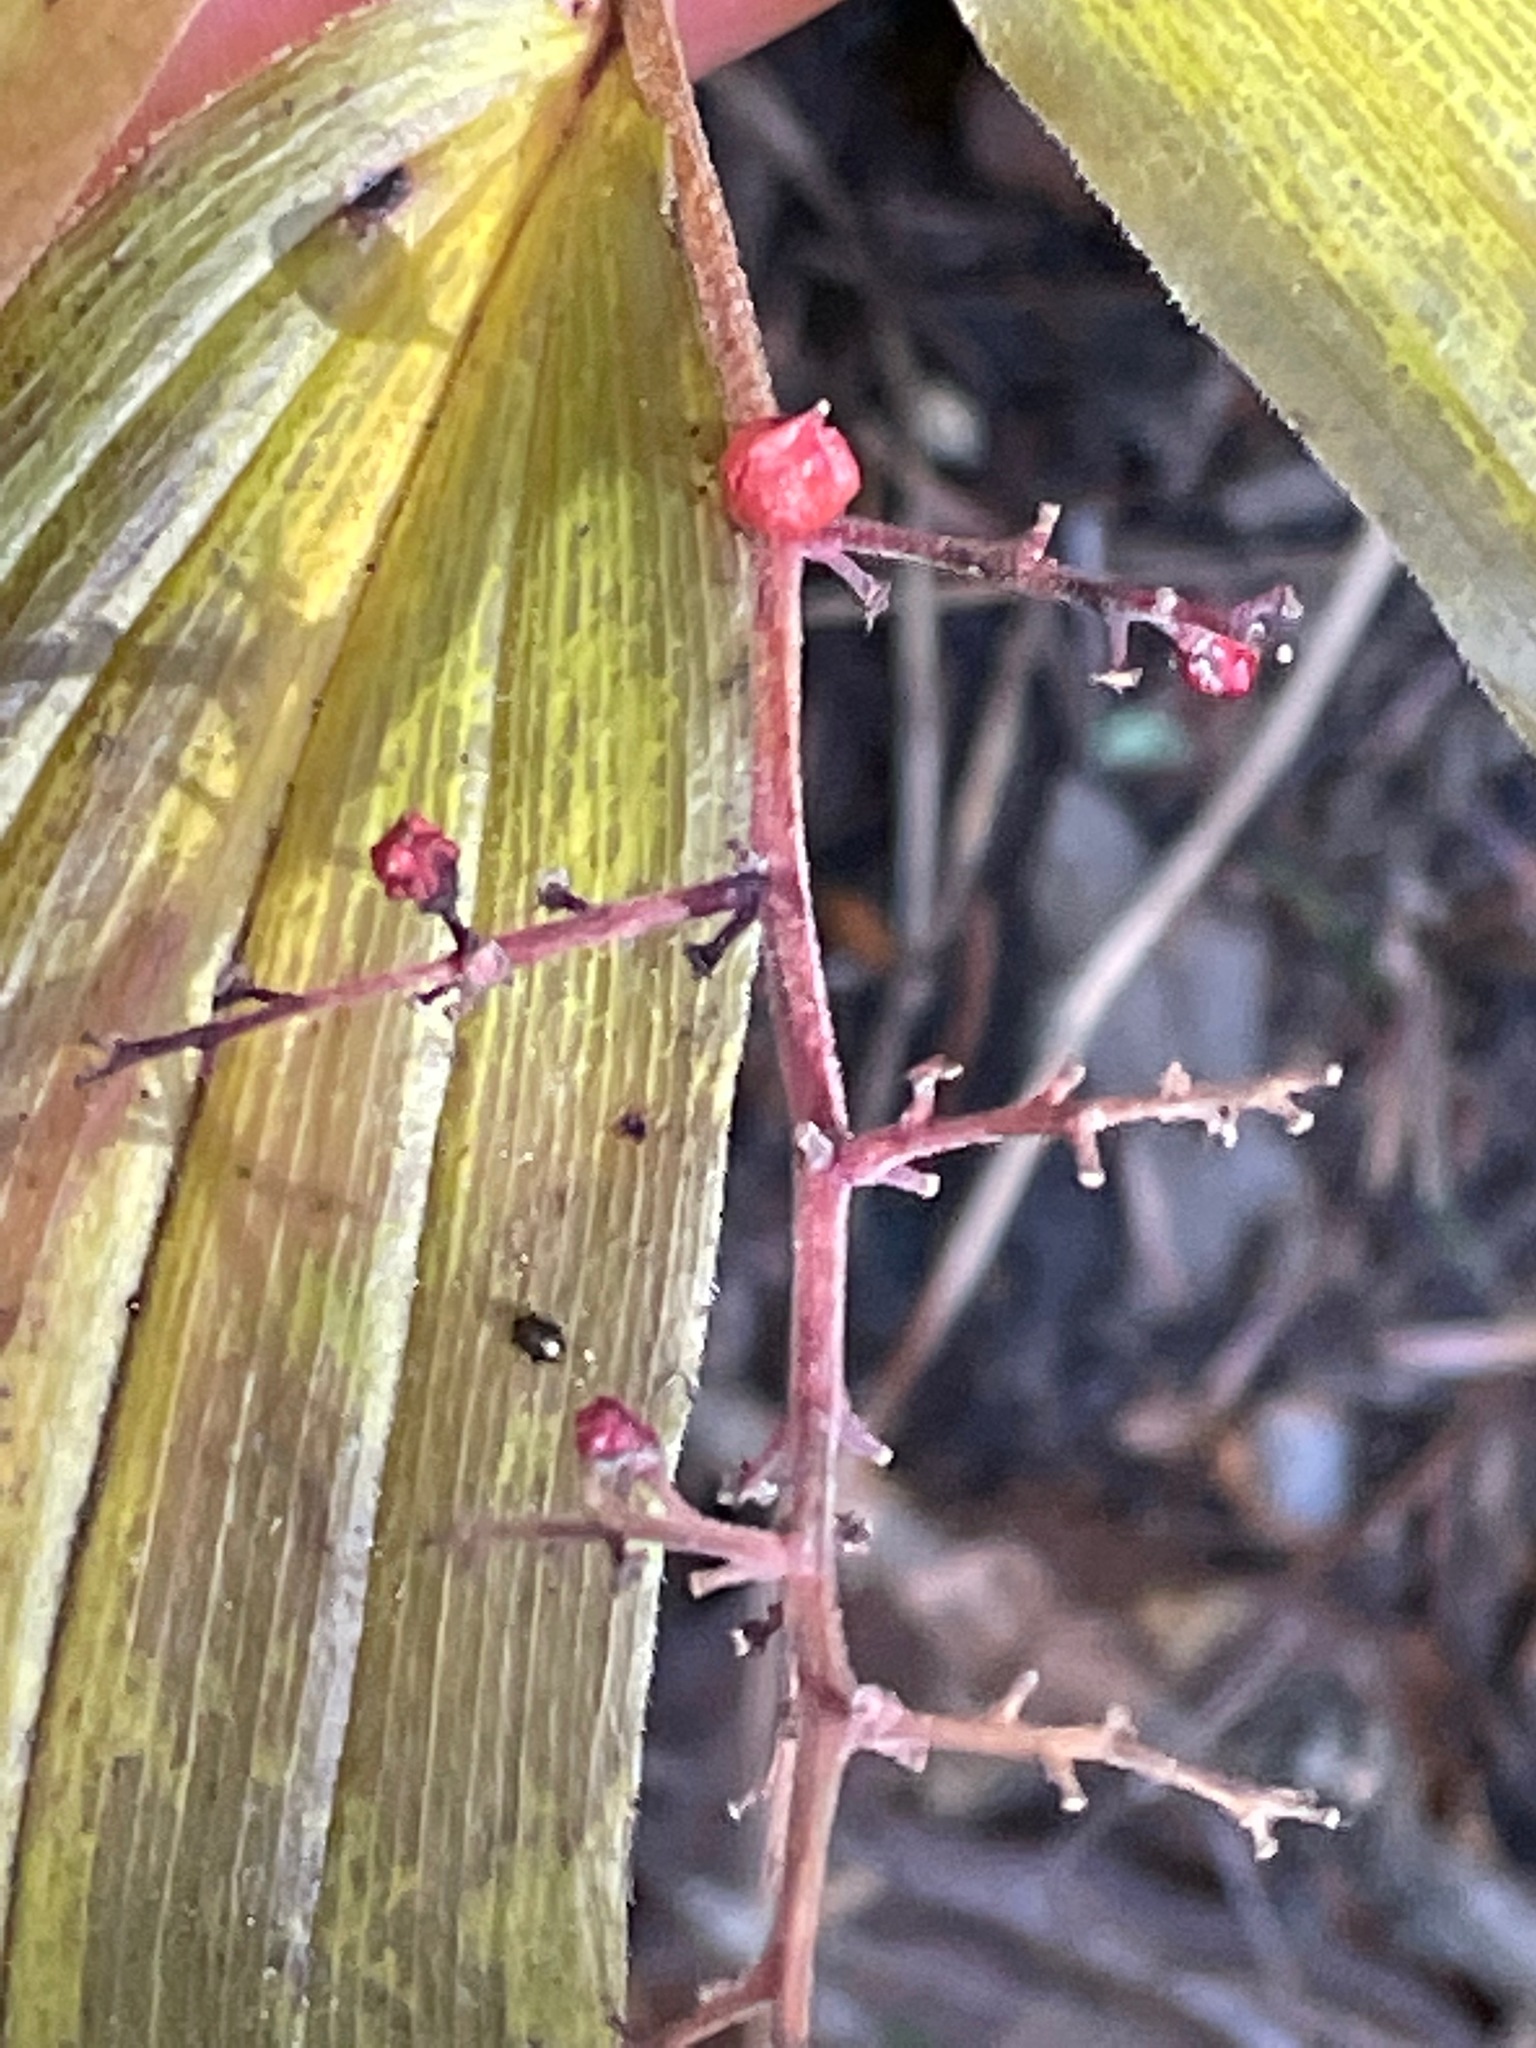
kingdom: Plantae
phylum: Tracheophyta
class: Liliopsida
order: Asparagales
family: Asparagaceae
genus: Maianthemum
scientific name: Maianthemum racemosum
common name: False spikenard
